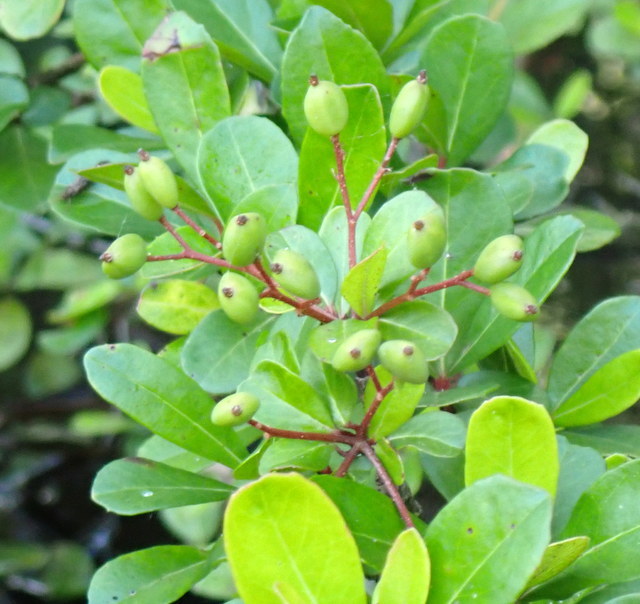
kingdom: Plantae
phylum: Tracheophyta
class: Magnoliopsida
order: Dipsacales
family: Viburnaceae
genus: Viburnum
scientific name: Viburnum obovatum
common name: Walter's viburnum
